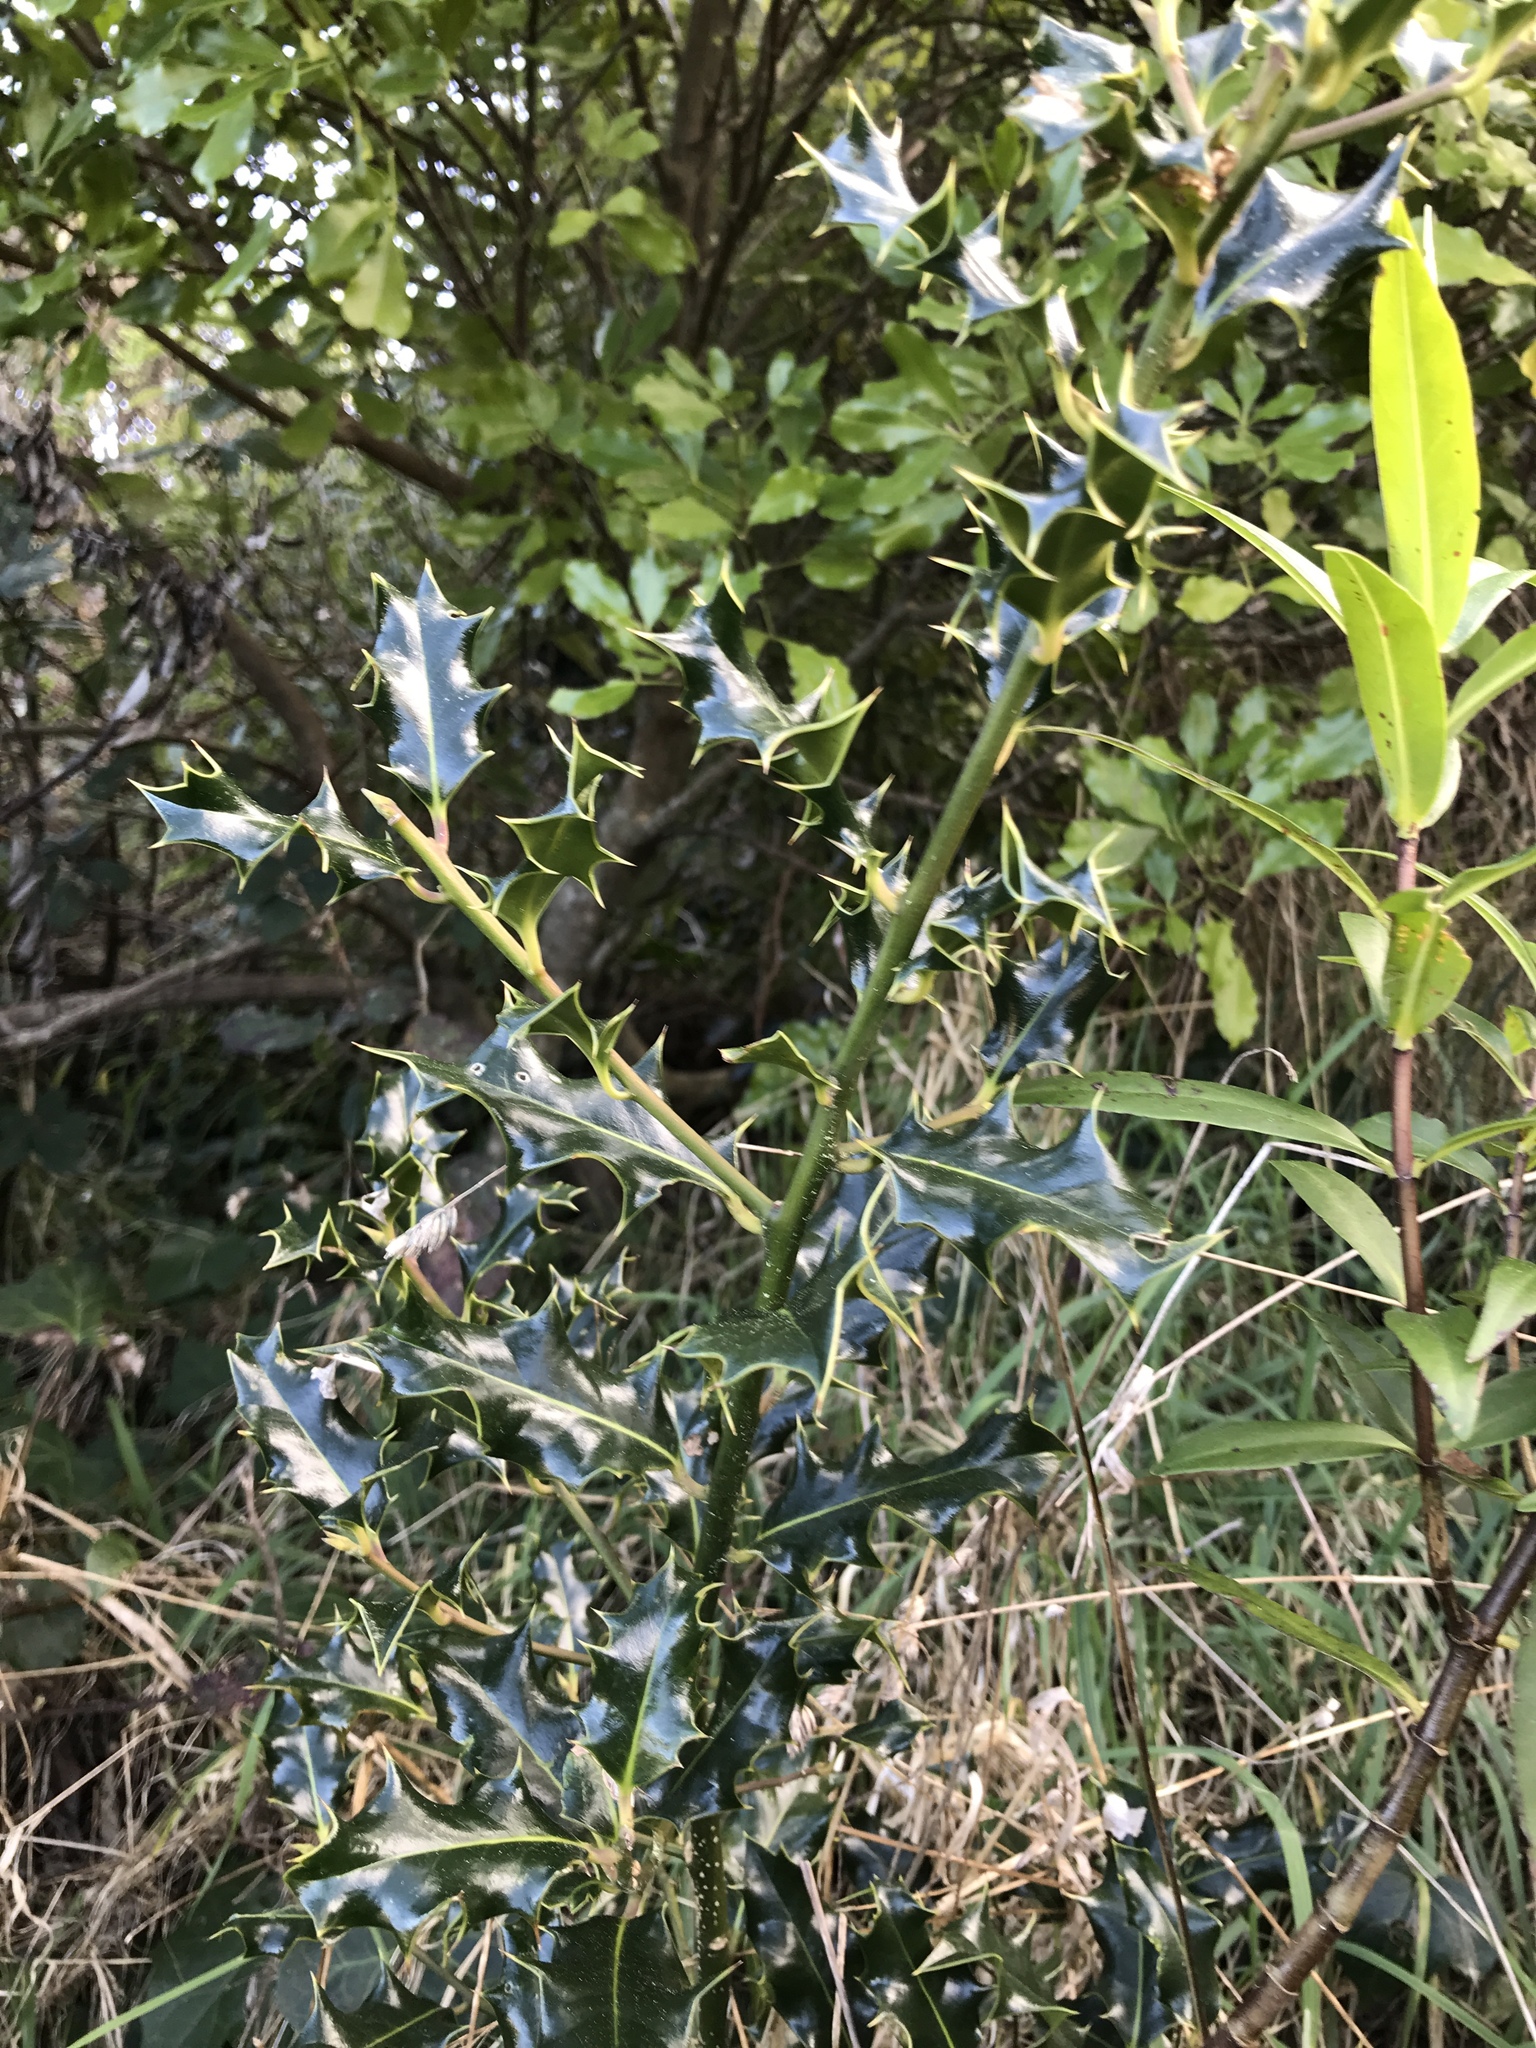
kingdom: Plantae
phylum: Tracheophyta
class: Magnoliopsida
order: Aquifoliales
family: Aquifoliaceae
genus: Ilex
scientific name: Ilex aquifolium
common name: English holly
